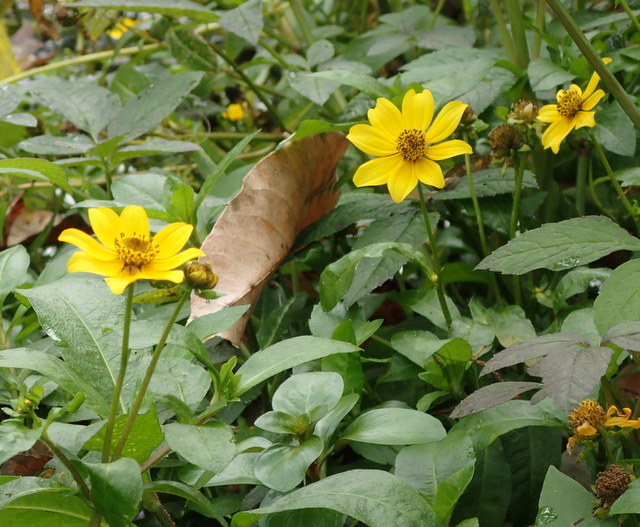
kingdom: Plantae
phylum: Tracheophyta
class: Magnoliopsida
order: Asterales
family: Asteraceae
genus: Bidens
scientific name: Bidens laevis
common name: Larger bur-marigold
